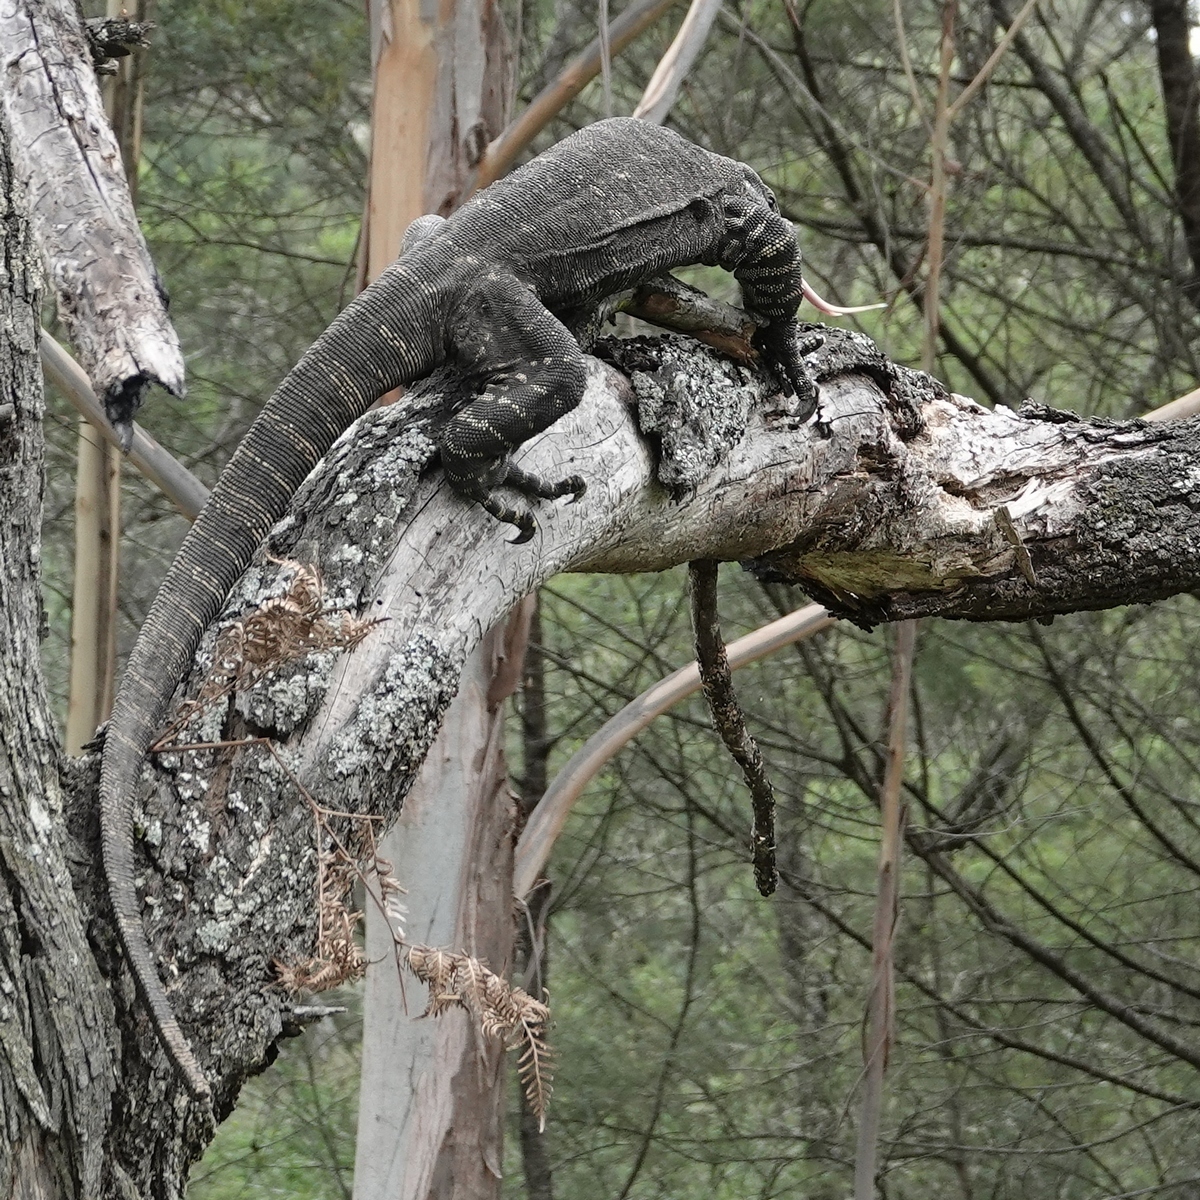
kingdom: Animalia
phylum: Chordata
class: Squamata
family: Varanidae
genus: Varanus
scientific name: Varanus varius
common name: Lace monitor
